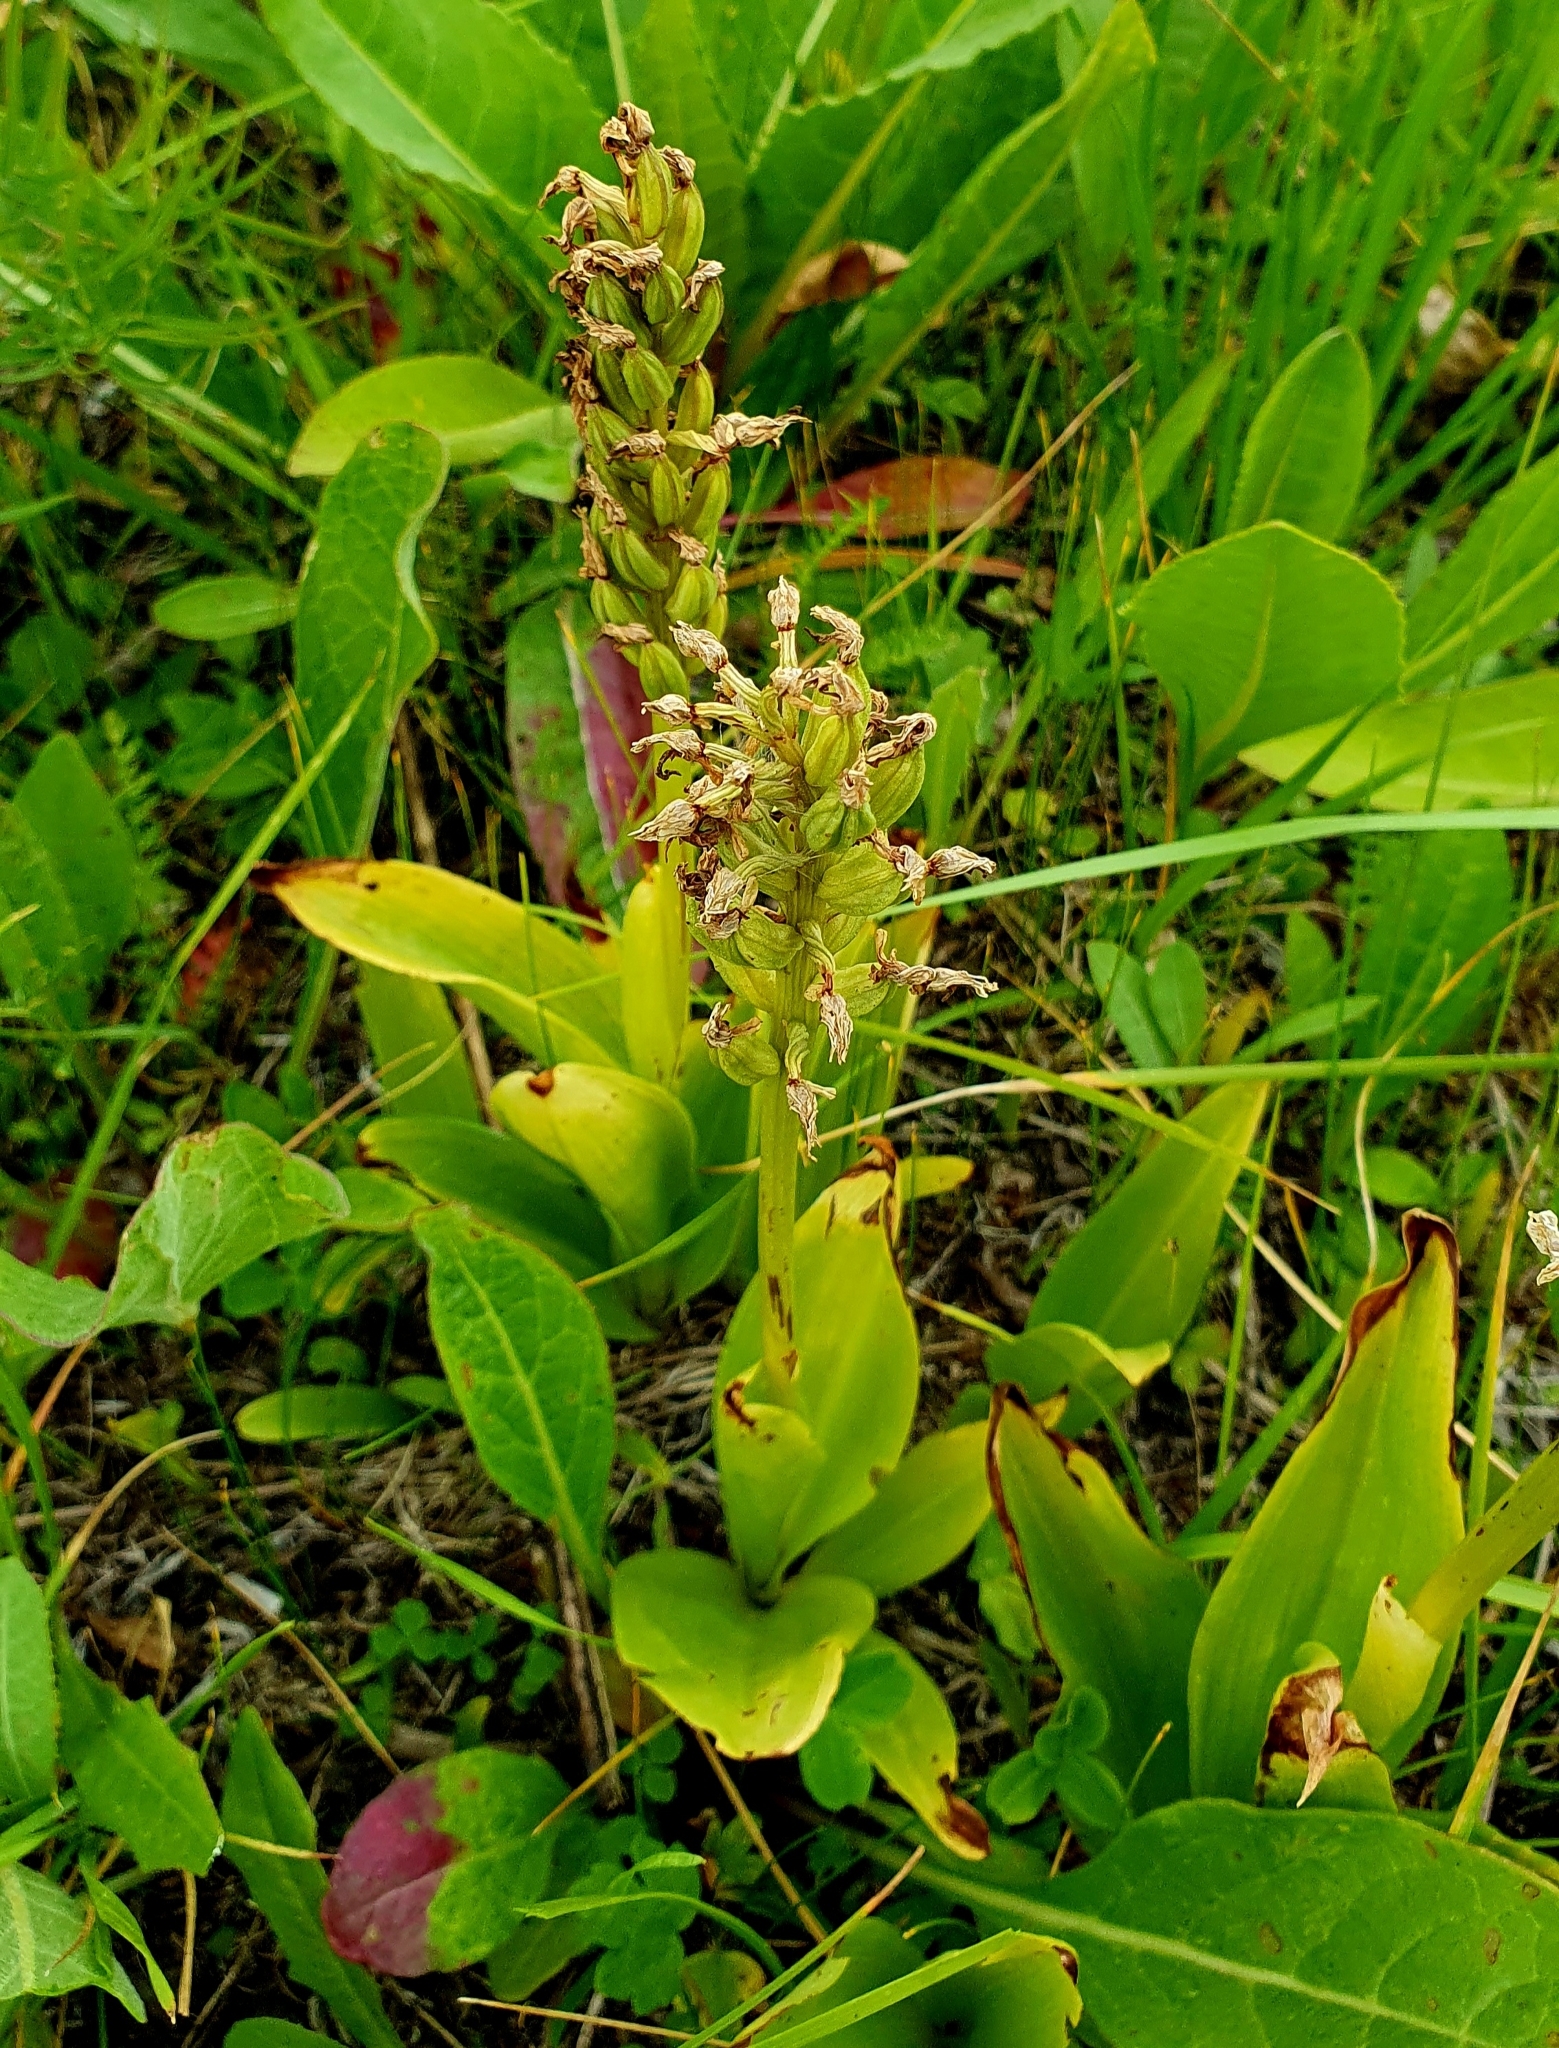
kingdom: Plantae
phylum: Tracheophyta
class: Liliopsida
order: Asparagales
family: Orchidaceae
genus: Orchis
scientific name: Orchis militaris
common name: Military orchid
